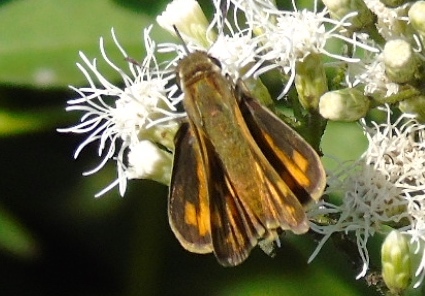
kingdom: Animalia
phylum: Arthropoda
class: Insecta
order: Lepidoptera
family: Hesperiidae
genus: Hylephila
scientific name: Hylephila phyleus
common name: Fiery skipper
